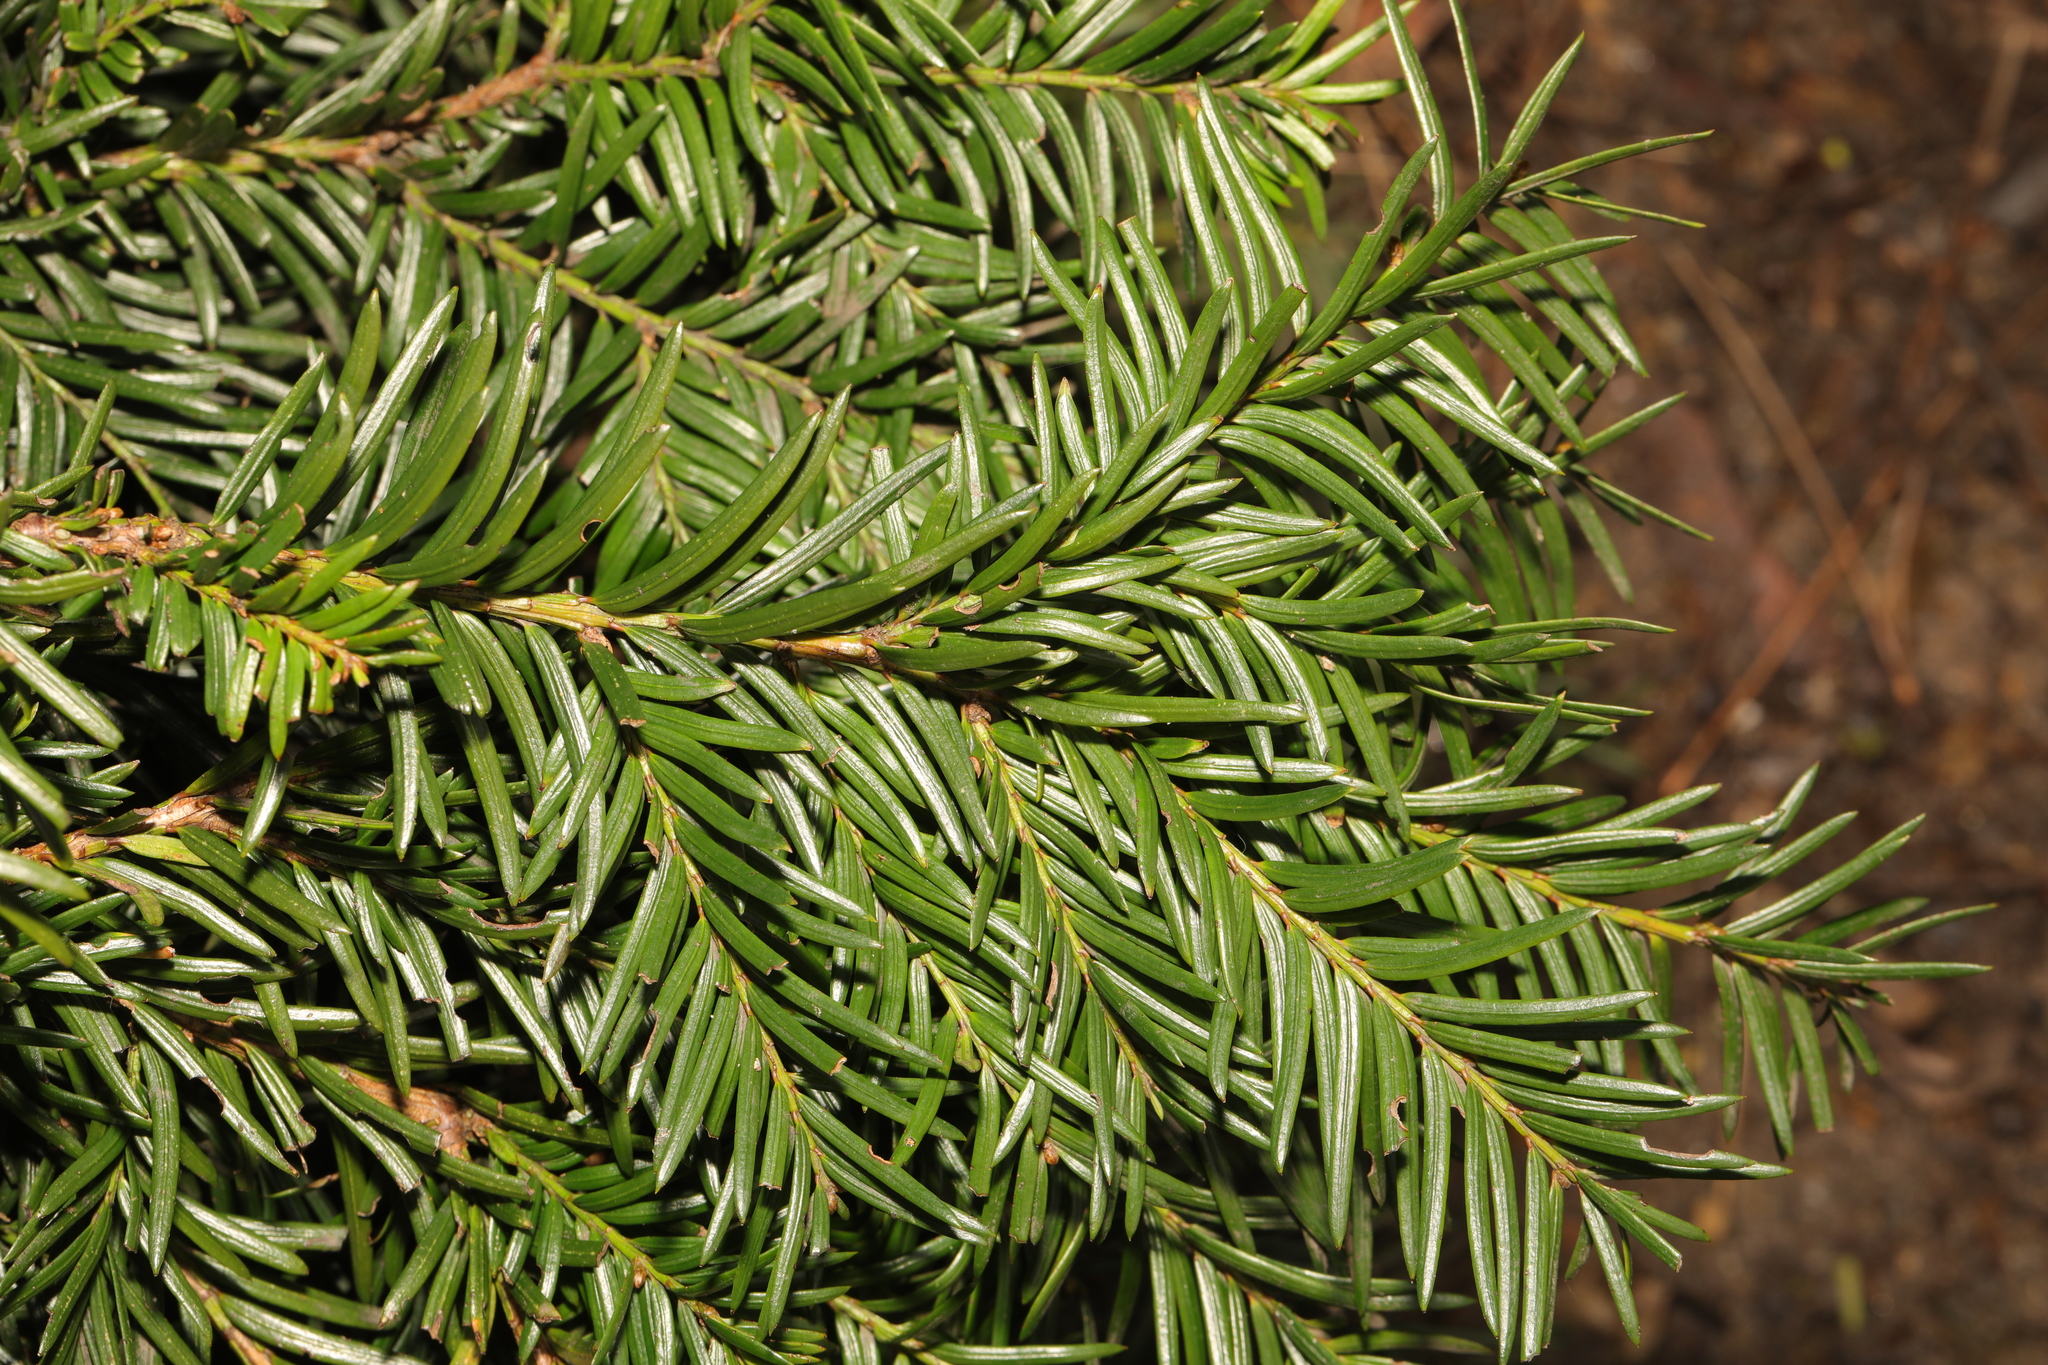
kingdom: Plantae
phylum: Tracheophyta
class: Pinopsida
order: Pinales
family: Taxaceae
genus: Taxus
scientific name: Taxus baccata
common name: Yew
